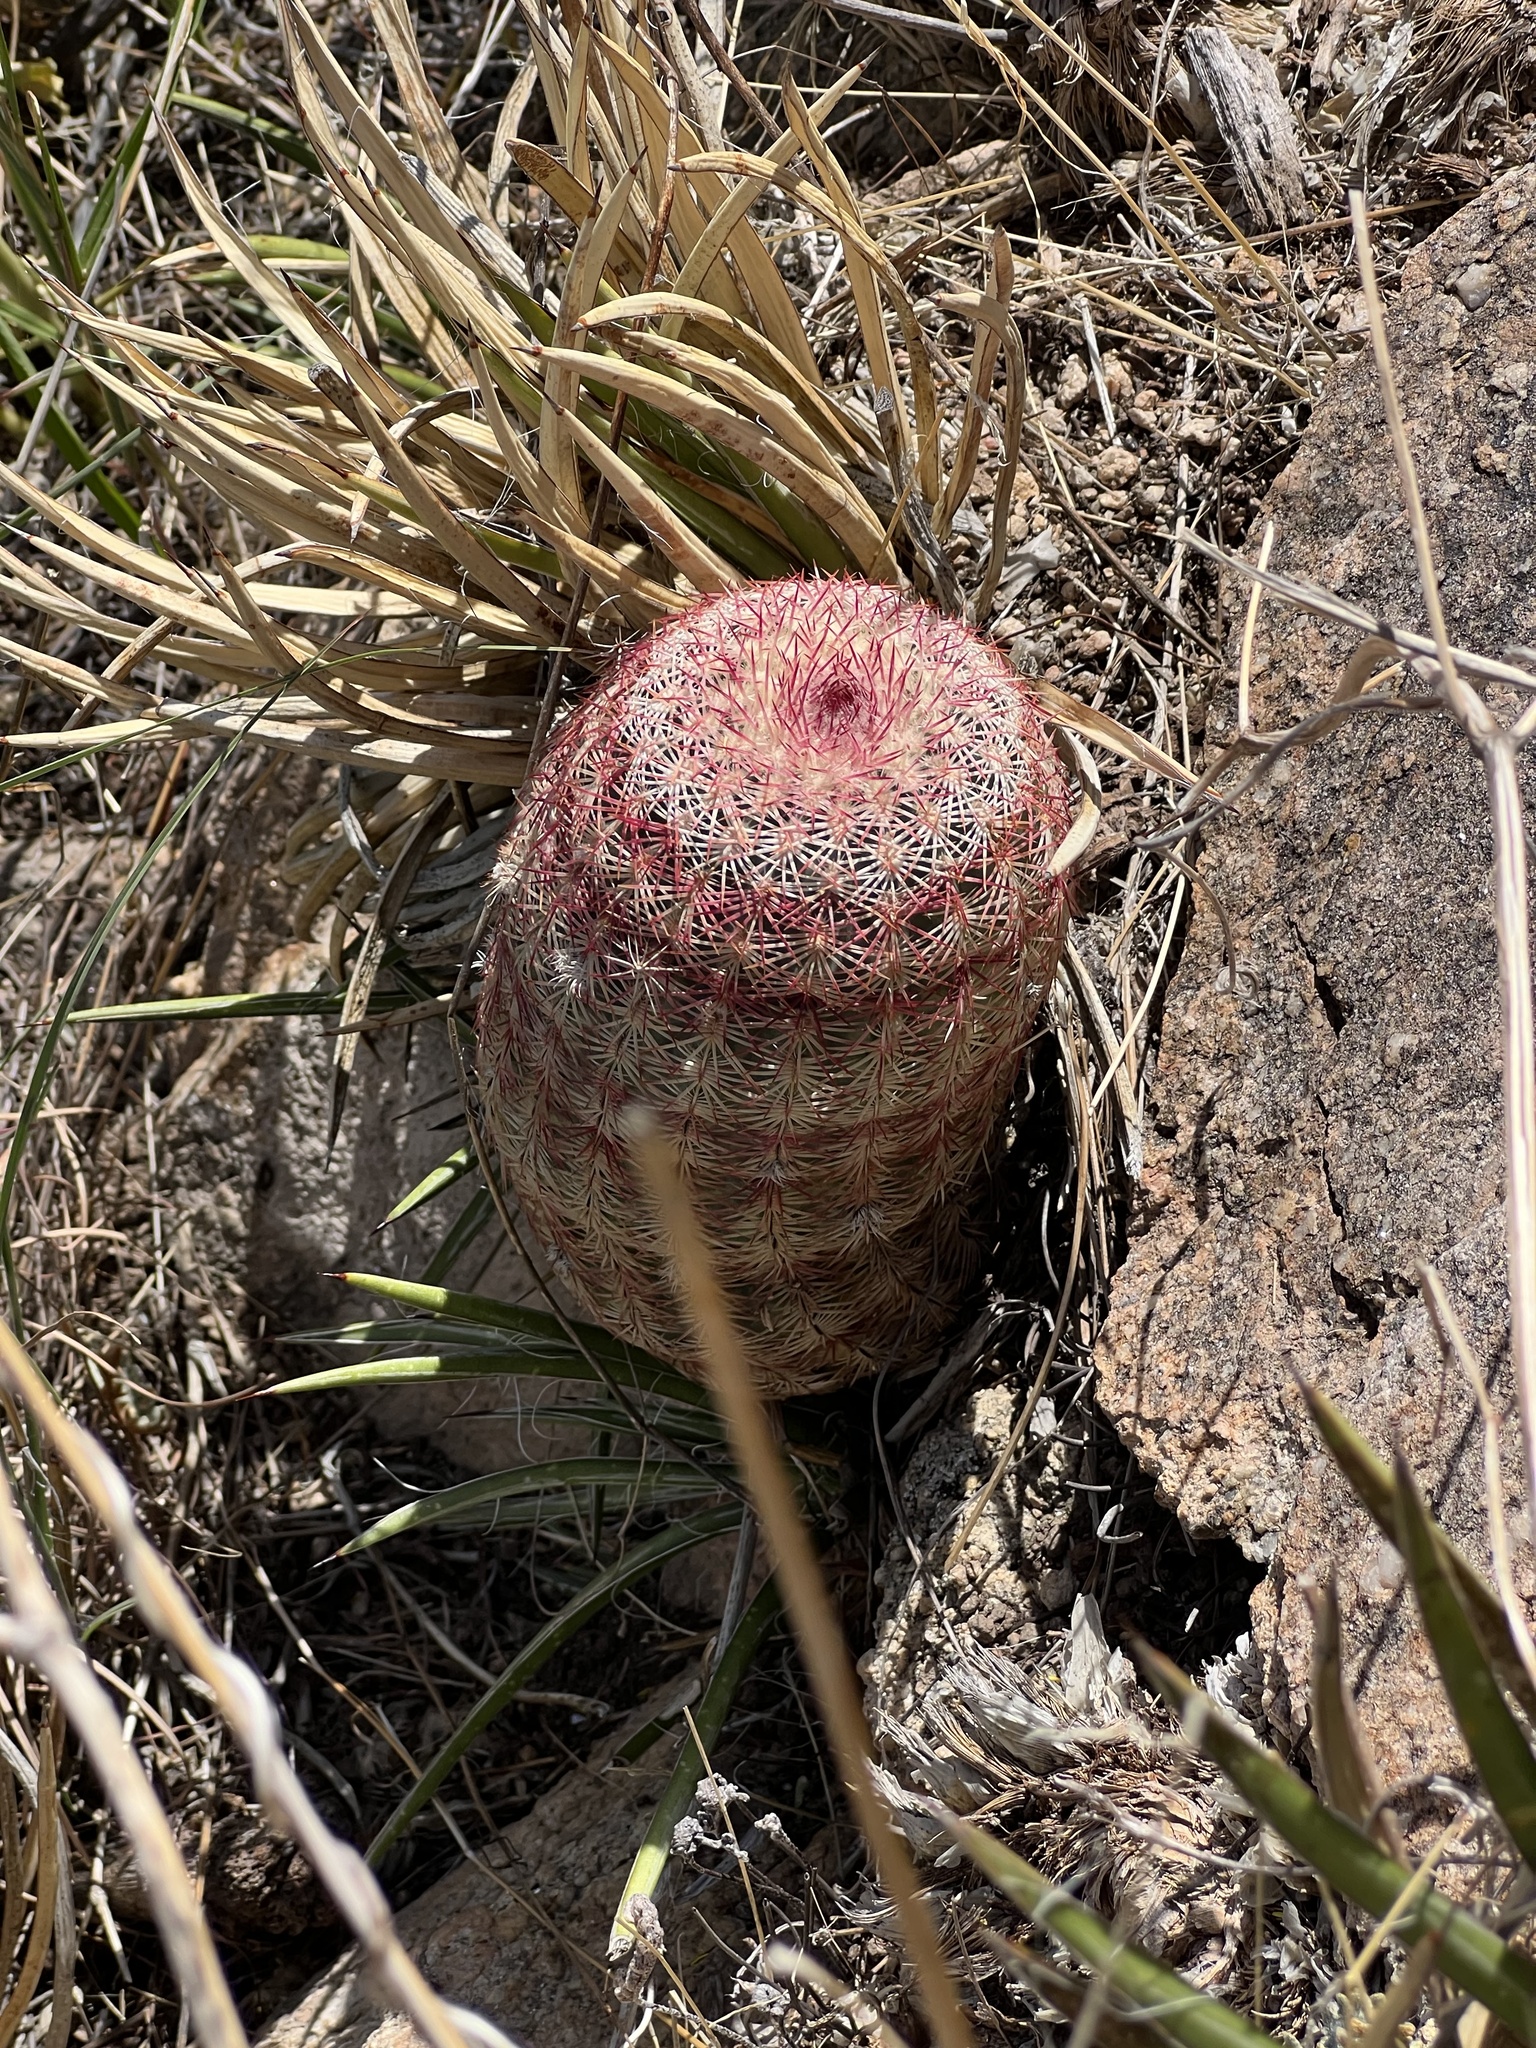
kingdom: Plantae
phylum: Tracheophyta
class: Magnoliopsida
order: Caryophyllales
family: Cactaceae
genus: Echinocereus
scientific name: Echinocereus rigidissimus
